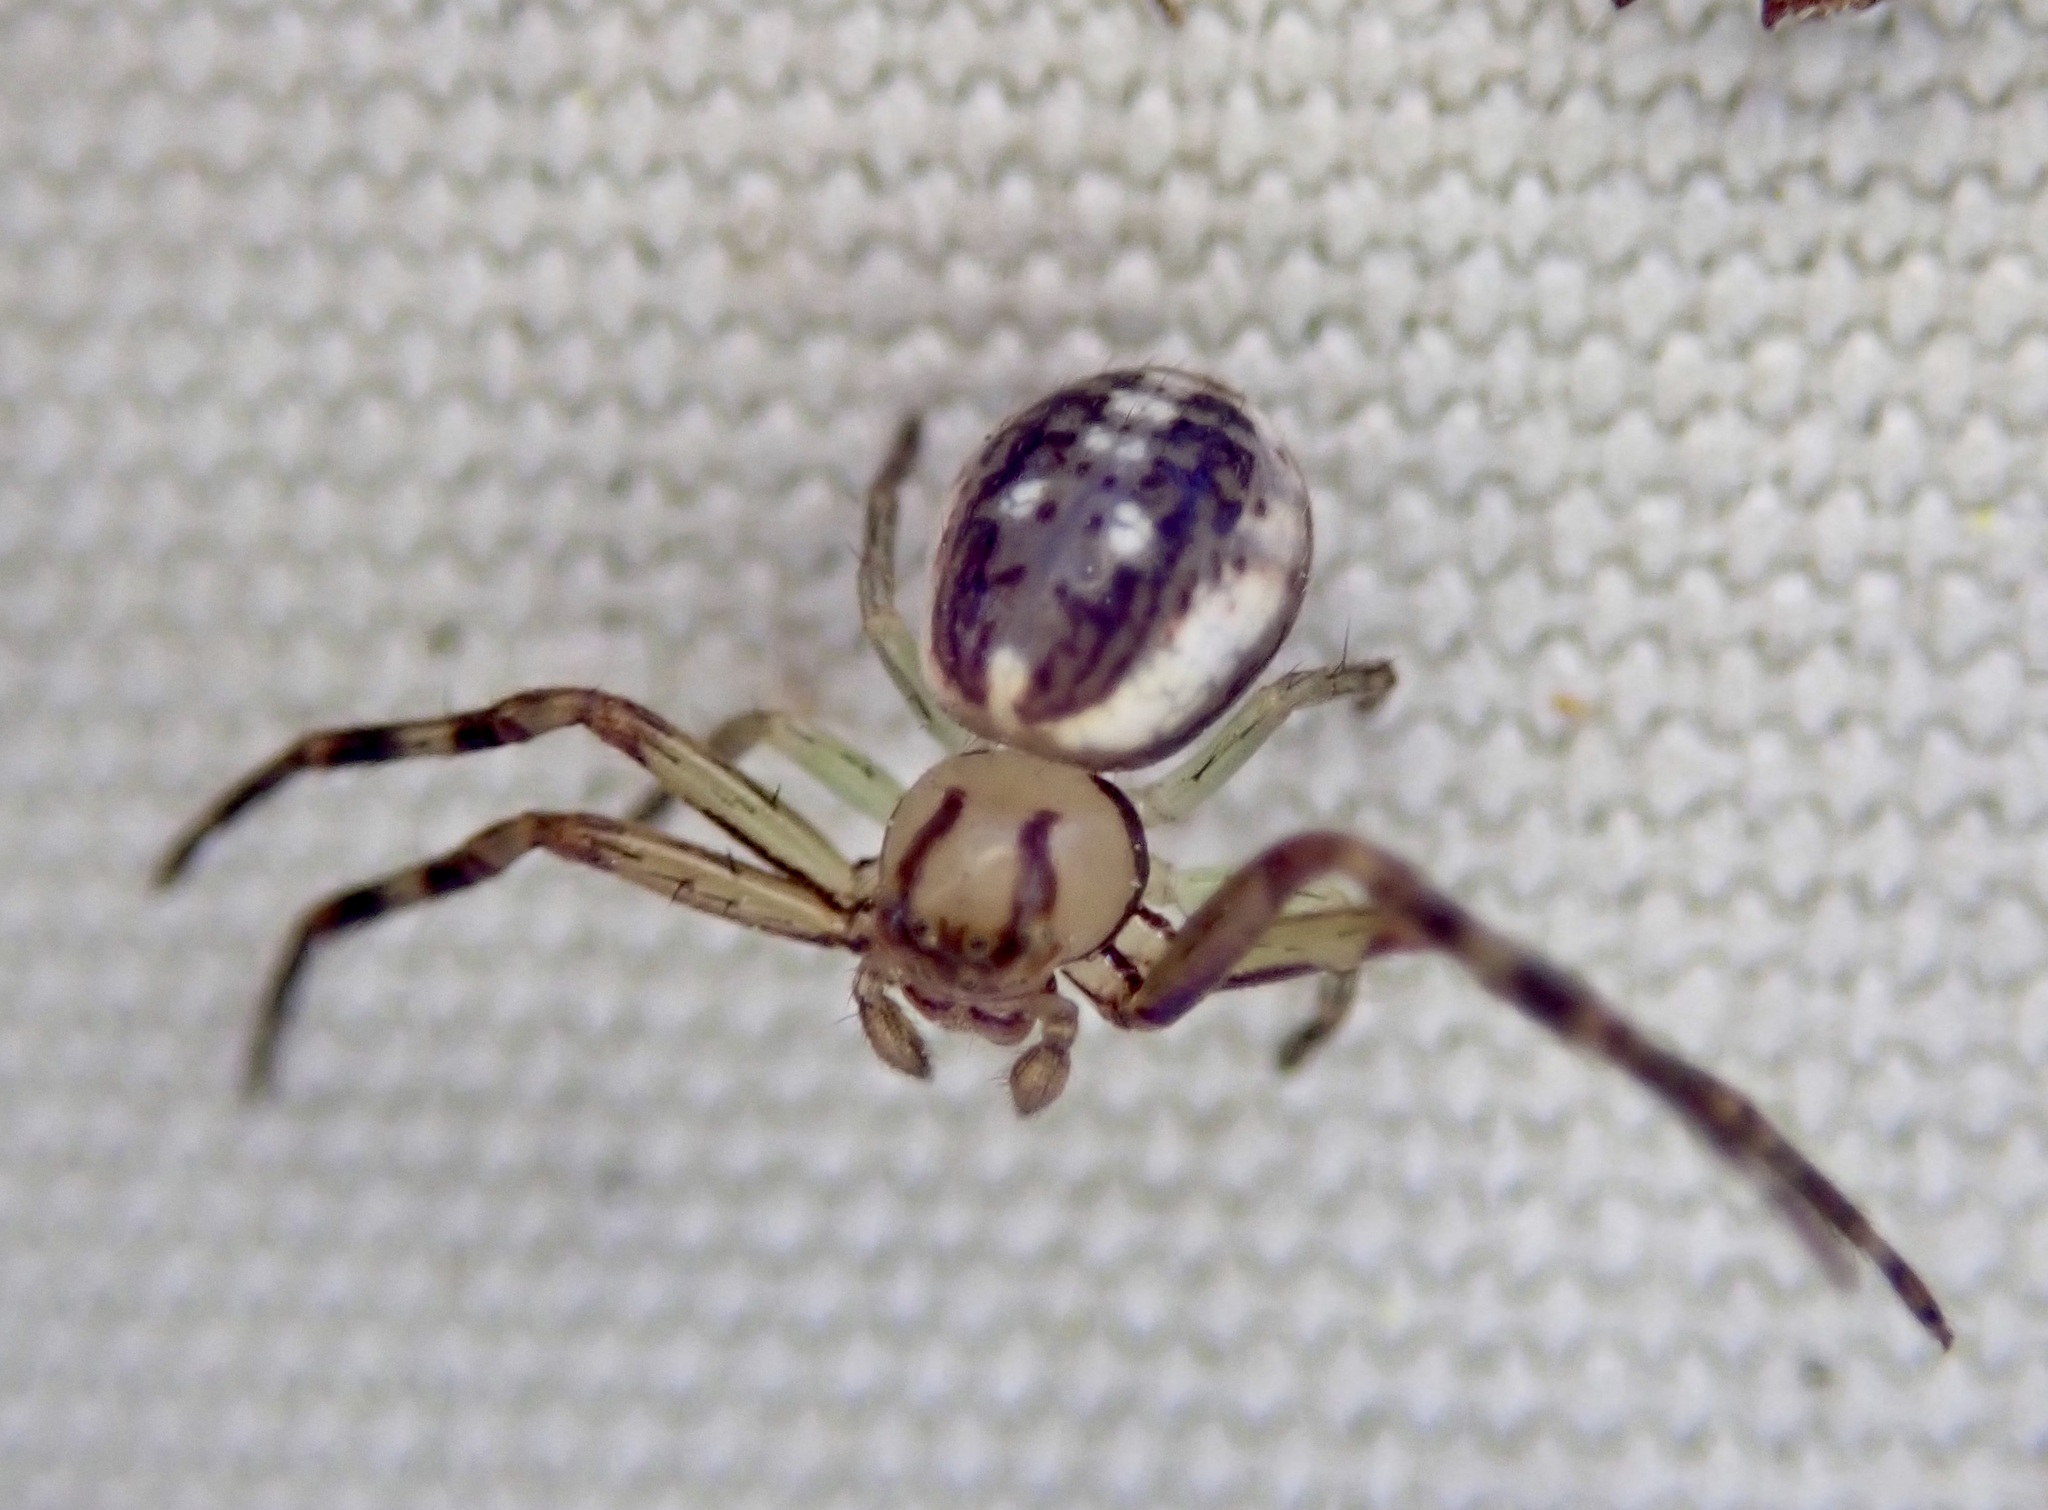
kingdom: Animalia
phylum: Arthropoda
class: Arachnida
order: Araneae
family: Thomisidae
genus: Diaea
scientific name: Diaea ambara
